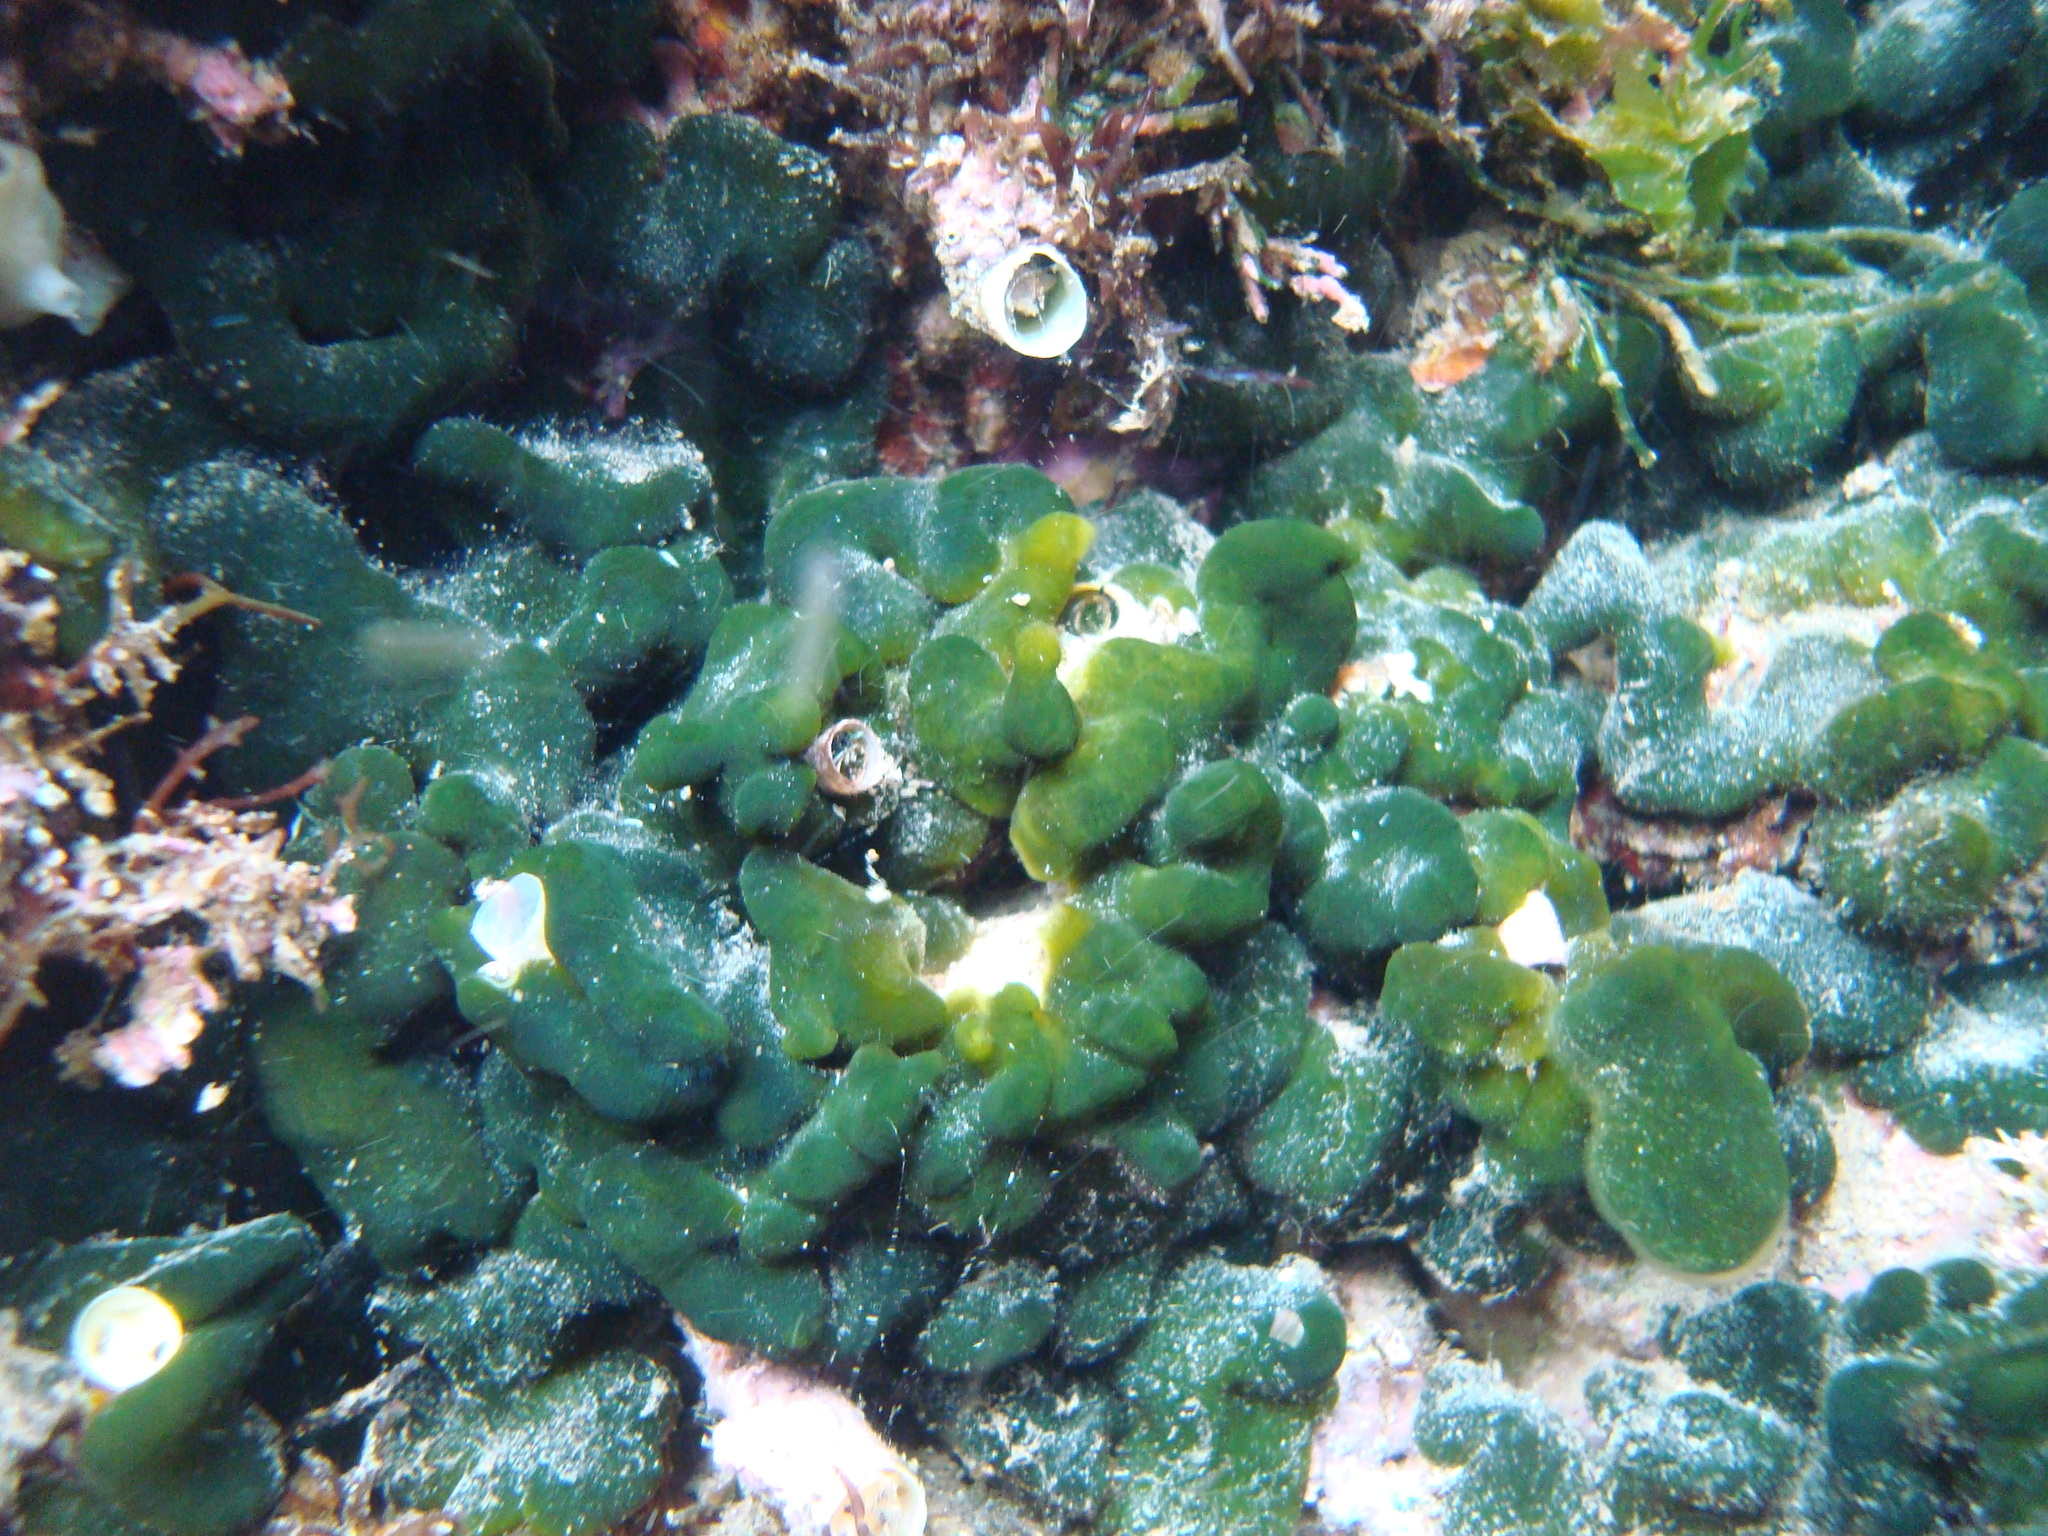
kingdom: Plantae
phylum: Chlorophyta
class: Ulvophyceae
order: Bryopsidales
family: Codiaceae
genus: Codium
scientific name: Codium
